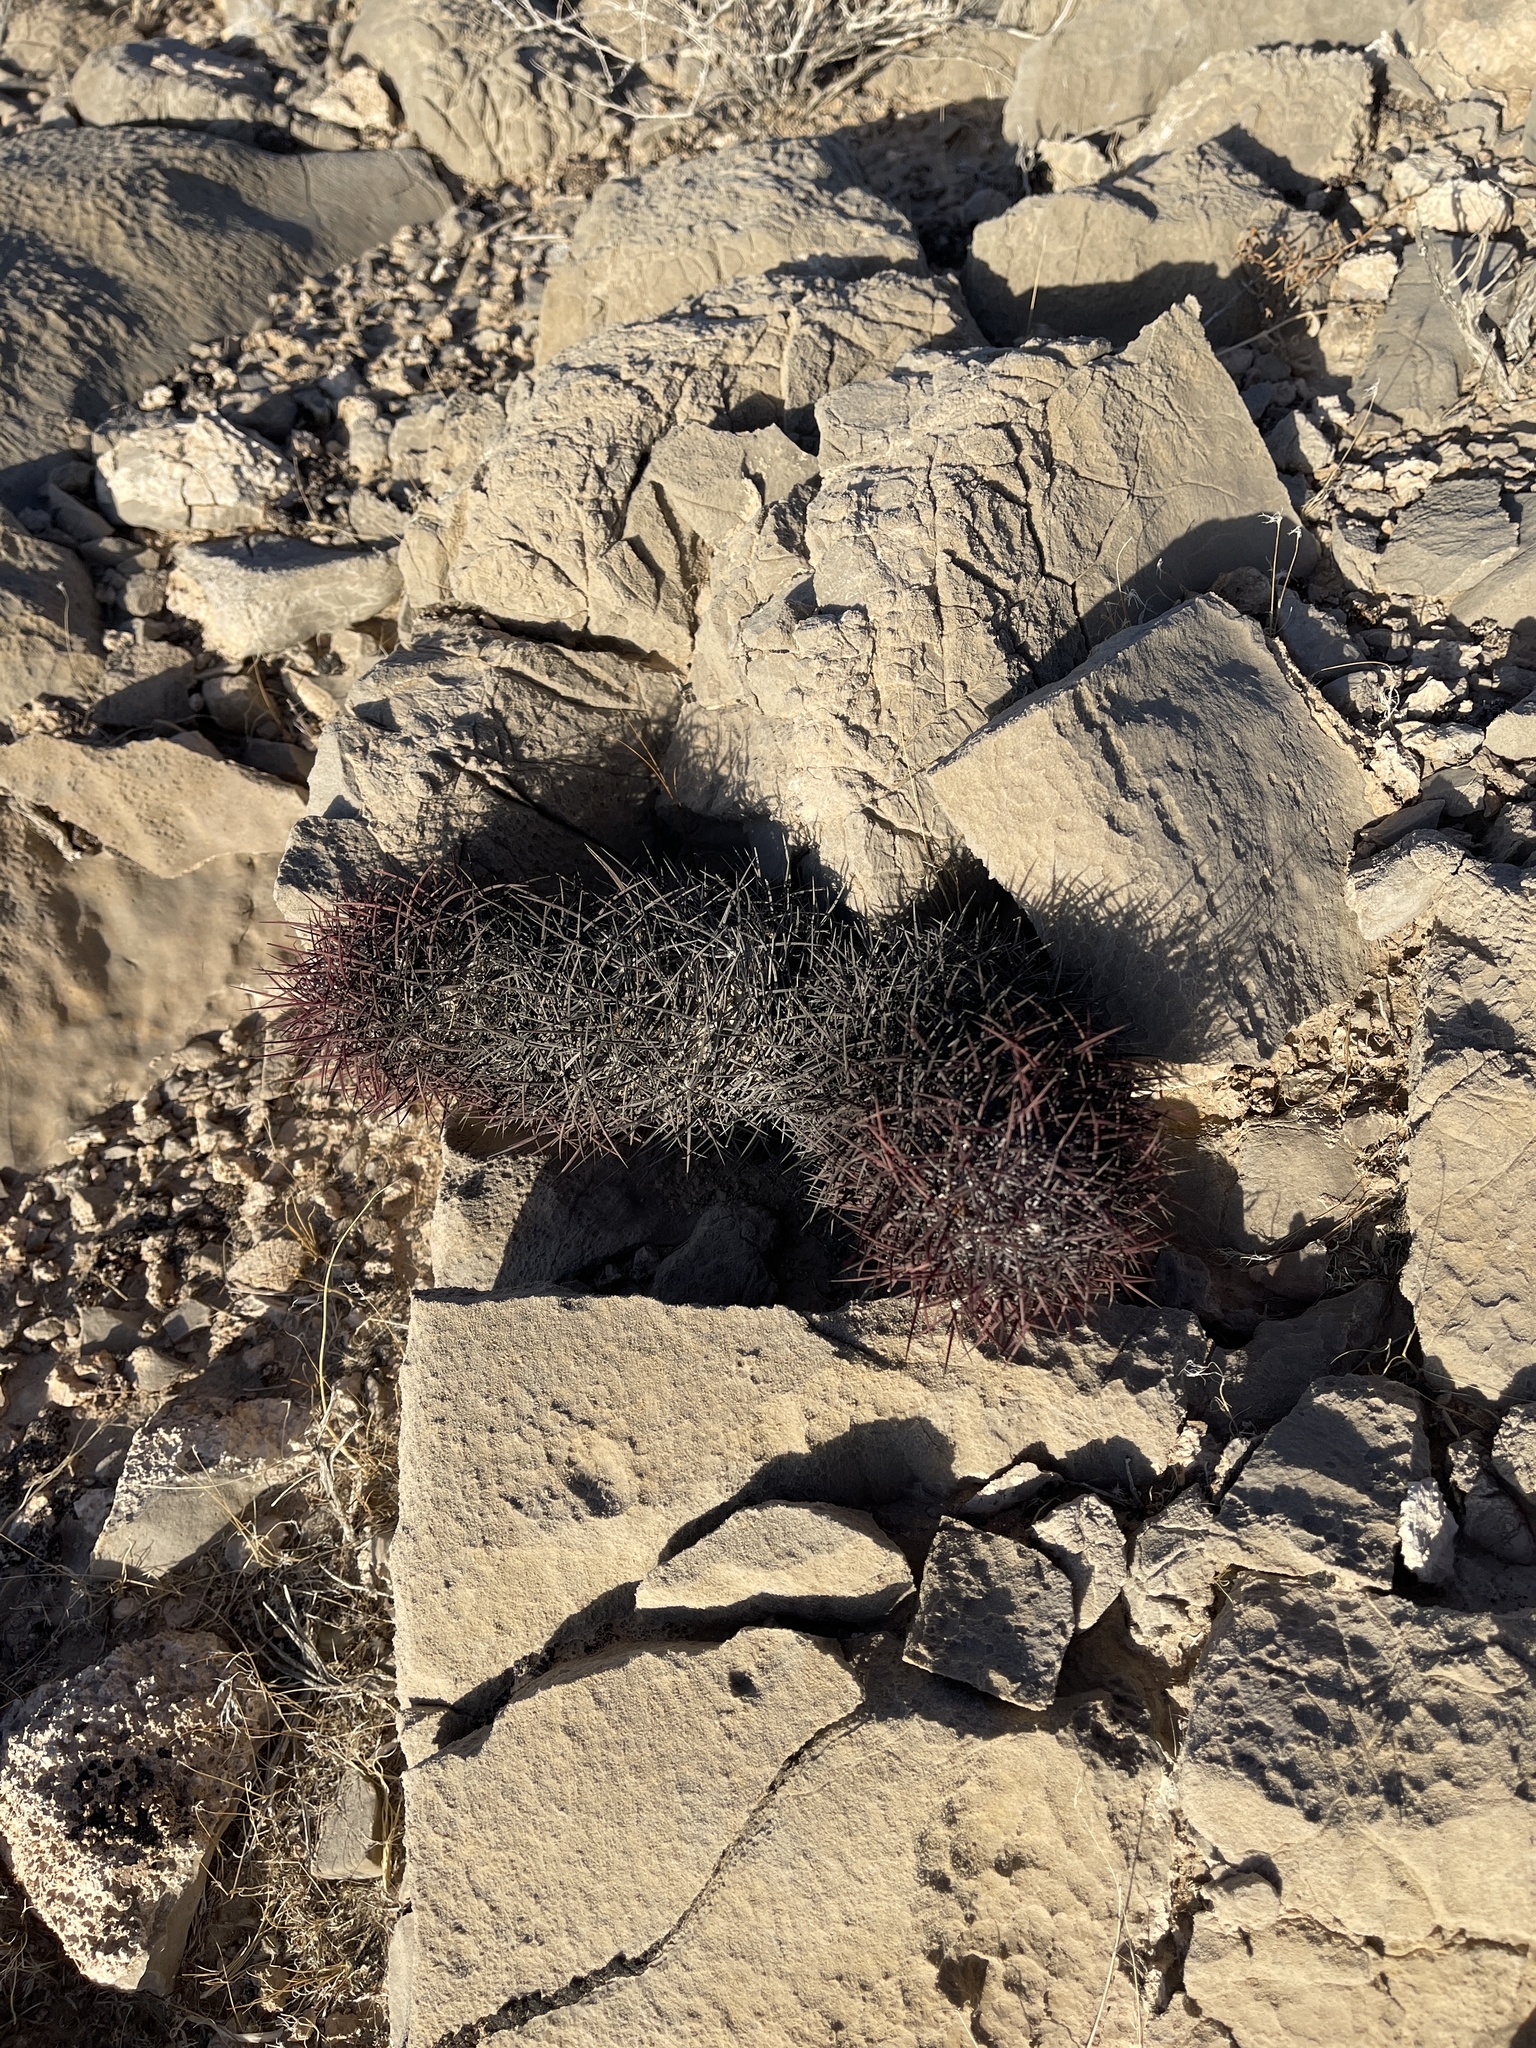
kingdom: Plantae
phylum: Tracheophyta
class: Magnoliopsida
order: Caryophyllales
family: Cactaceae
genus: Sclerocactus
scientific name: Sclerocactus johnsonii
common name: Eight-spine fishhook cactus
